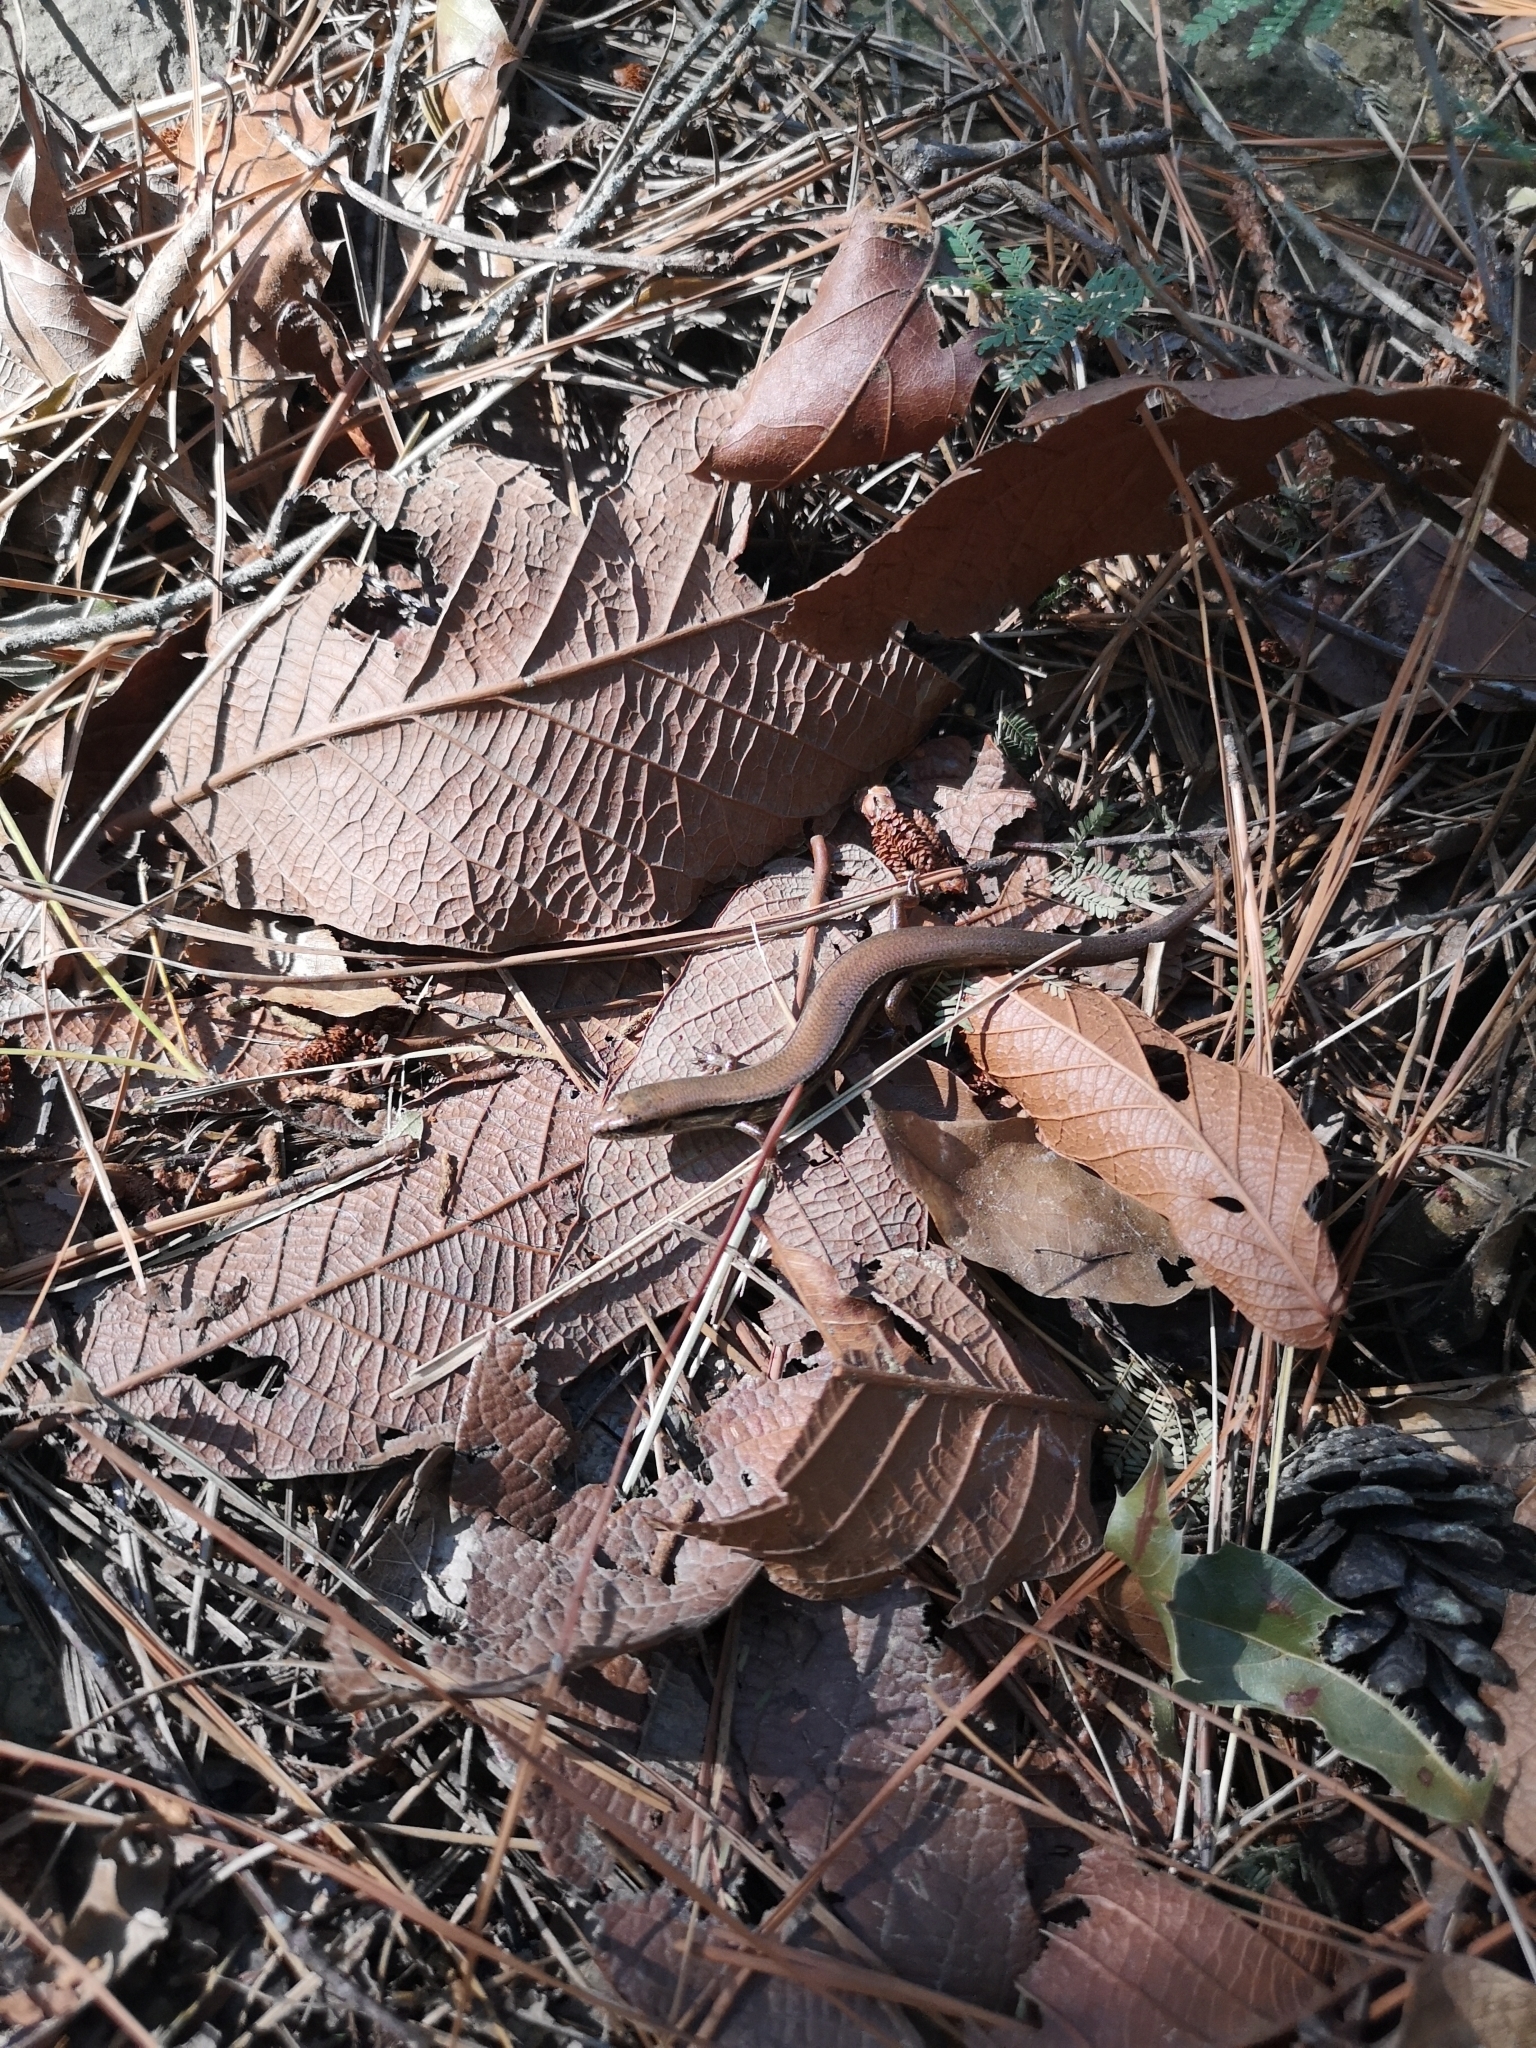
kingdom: Animalia
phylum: Chordata
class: Squamata
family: Scincidae
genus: Scincella
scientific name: Scincella silvicola
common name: Taylor’s ground skink
